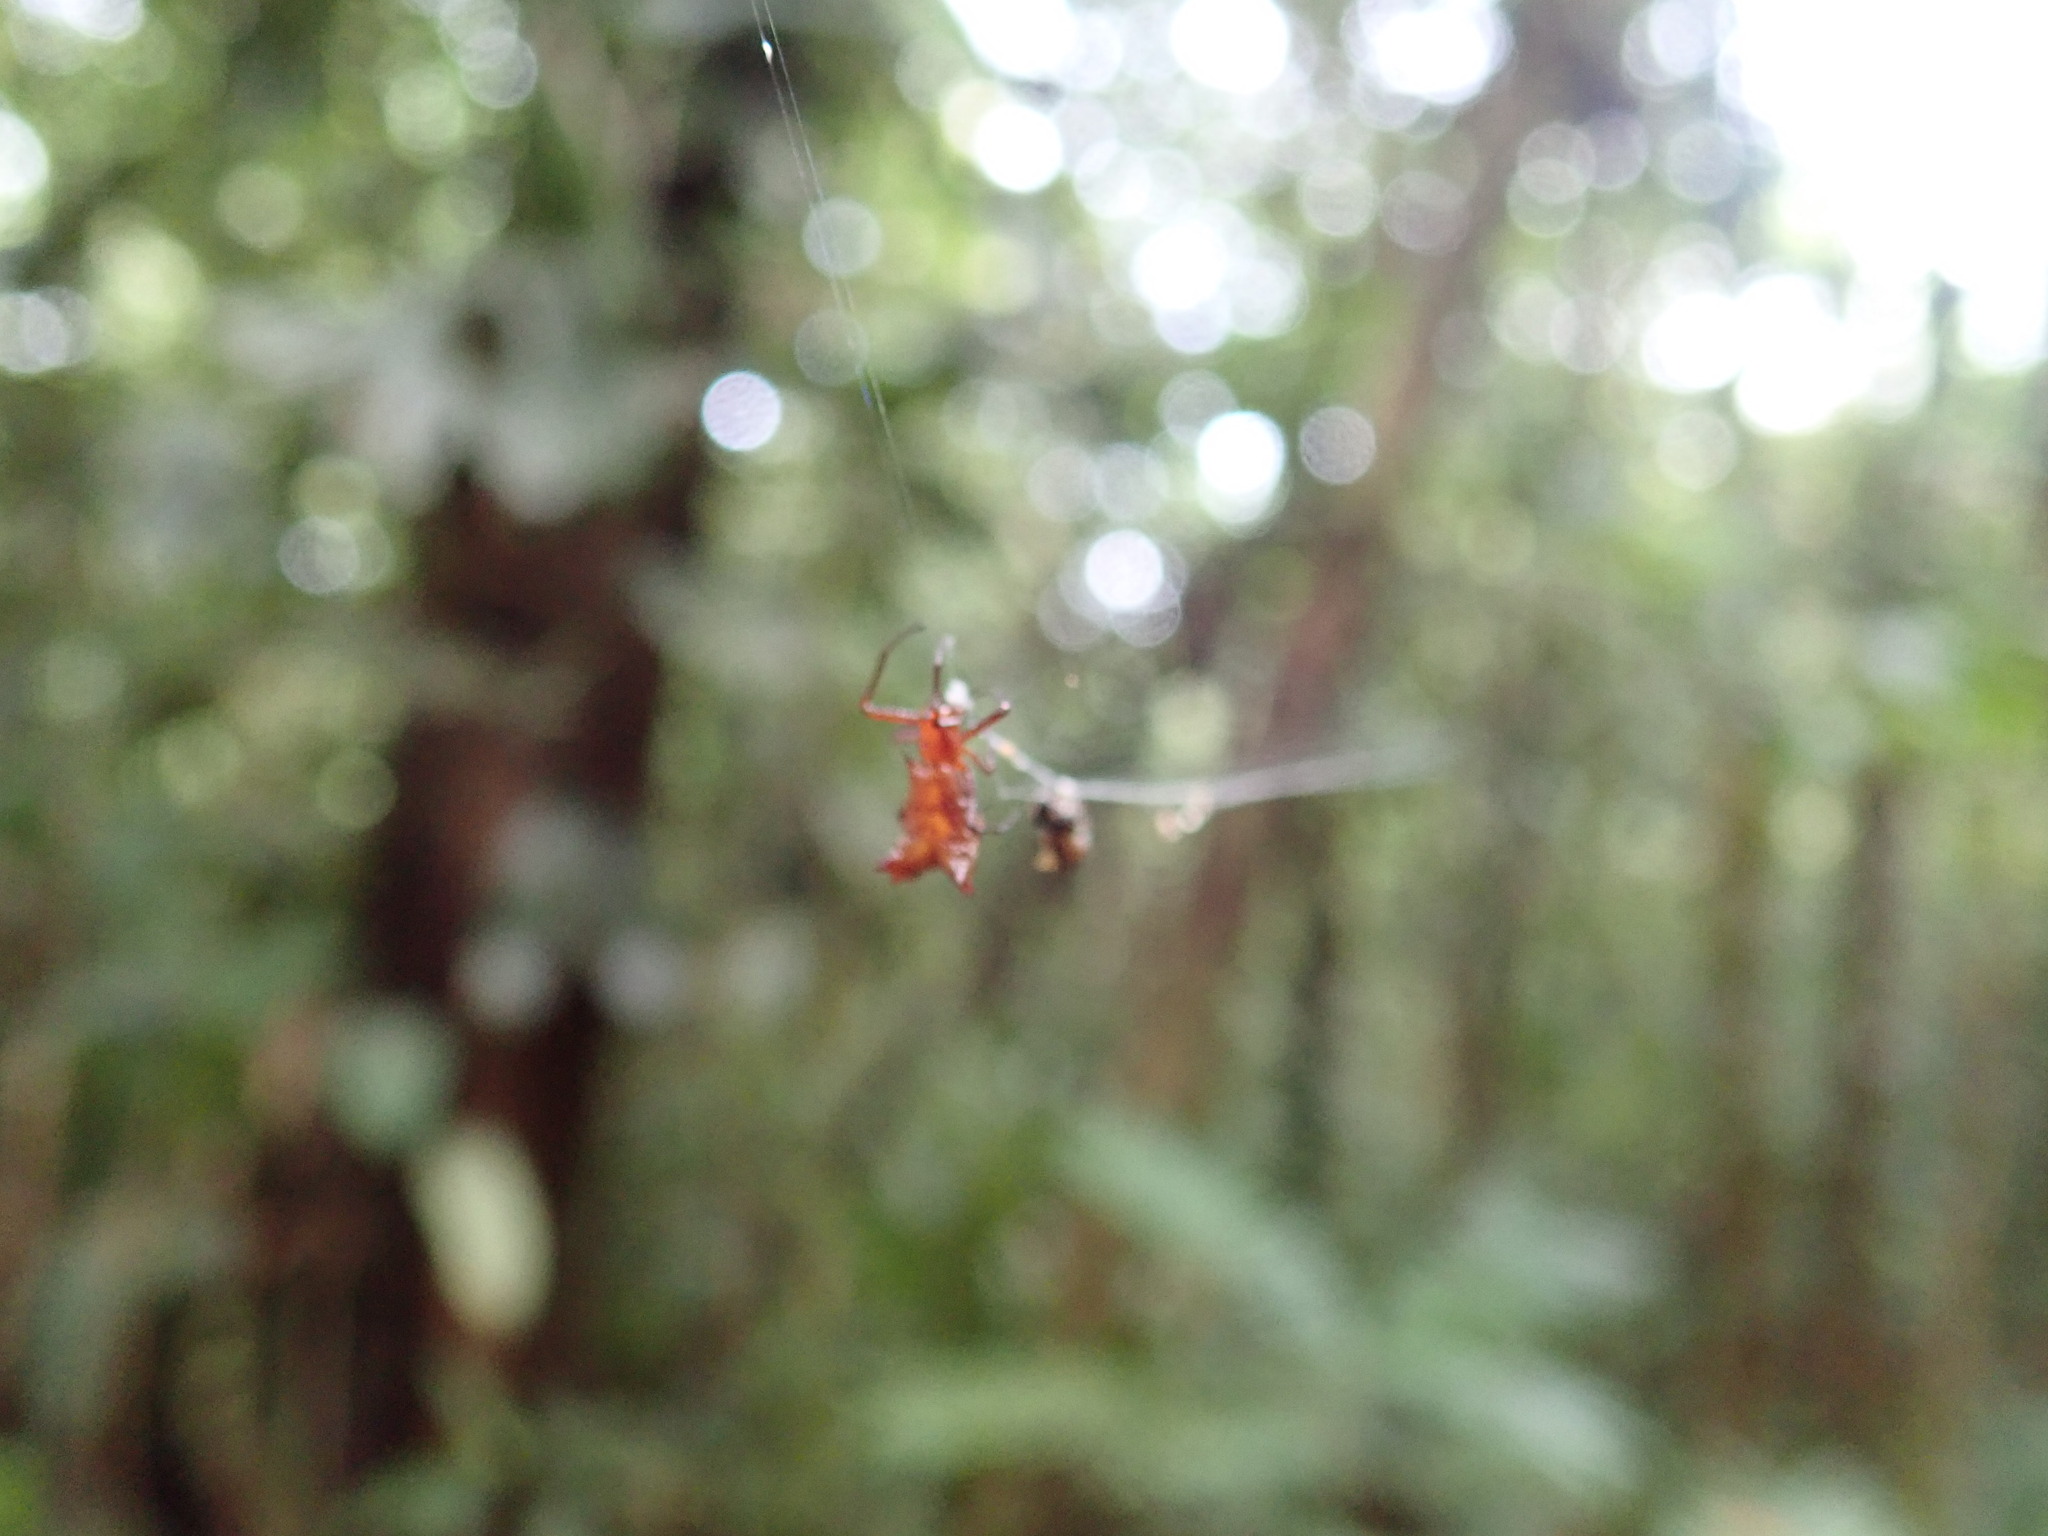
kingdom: Animalia
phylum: Arthropoda
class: Arachnida
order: Araneae
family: Araneidae
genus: Micrathena
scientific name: Micrathena molesta
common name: Orb weavers
